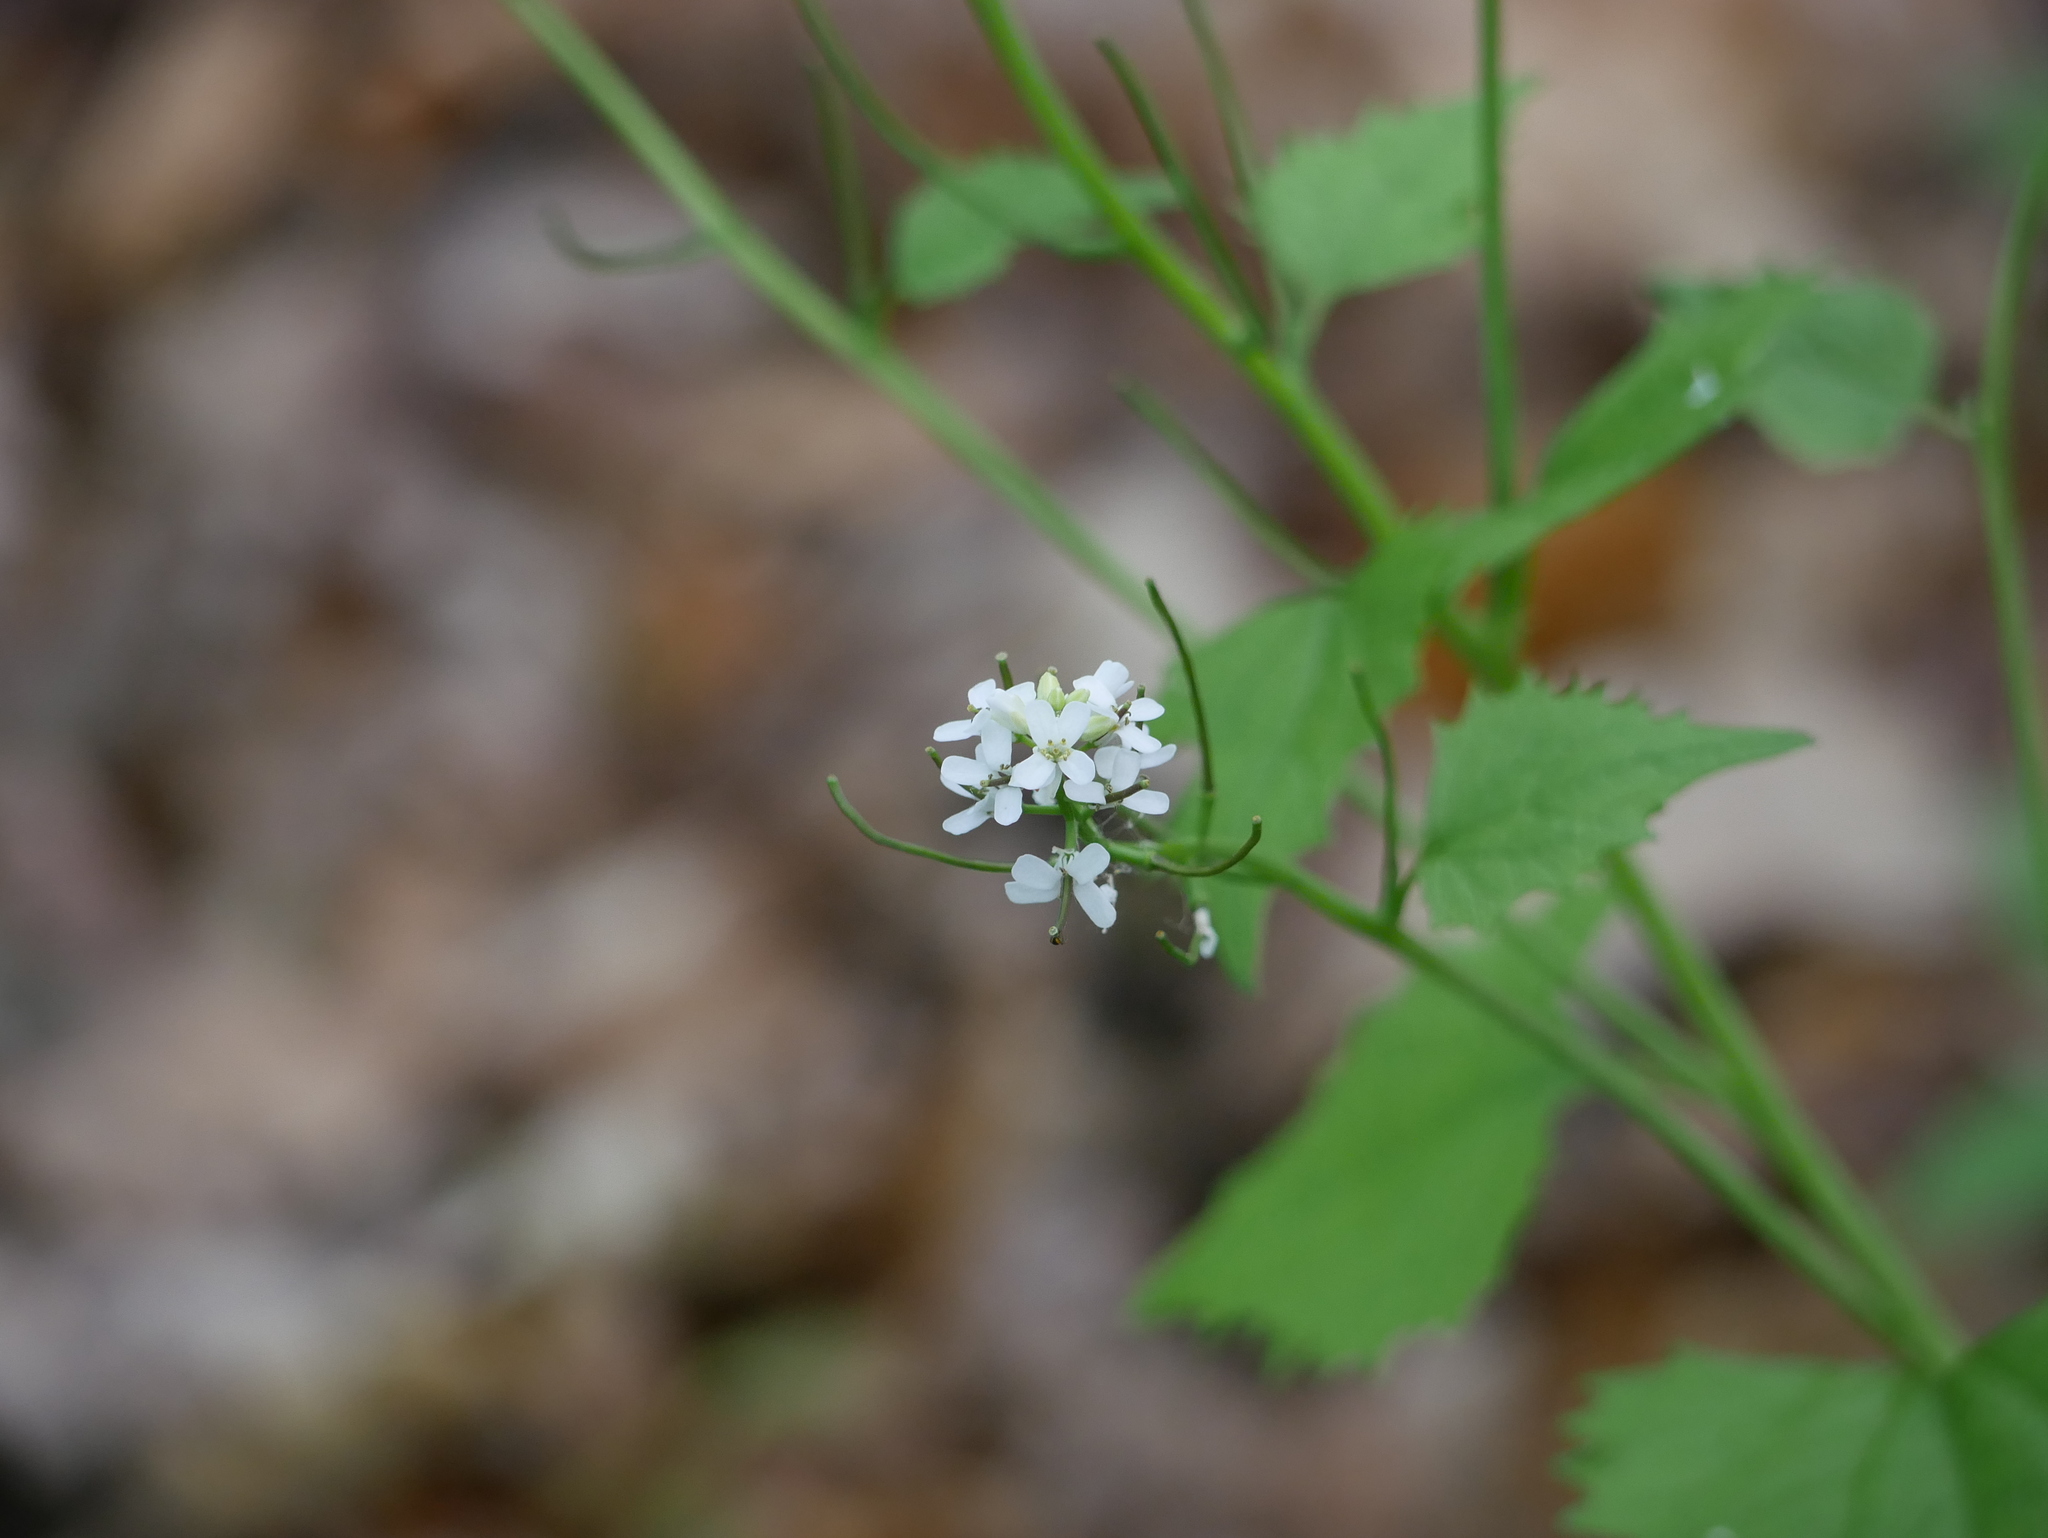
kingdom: Plantae
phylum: Tracheophyta
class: Magnoliopsida
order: Brassicales
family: Brassicaceae
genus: Alliaria
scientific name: Alliaria petiolata
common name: Garlic mustard
